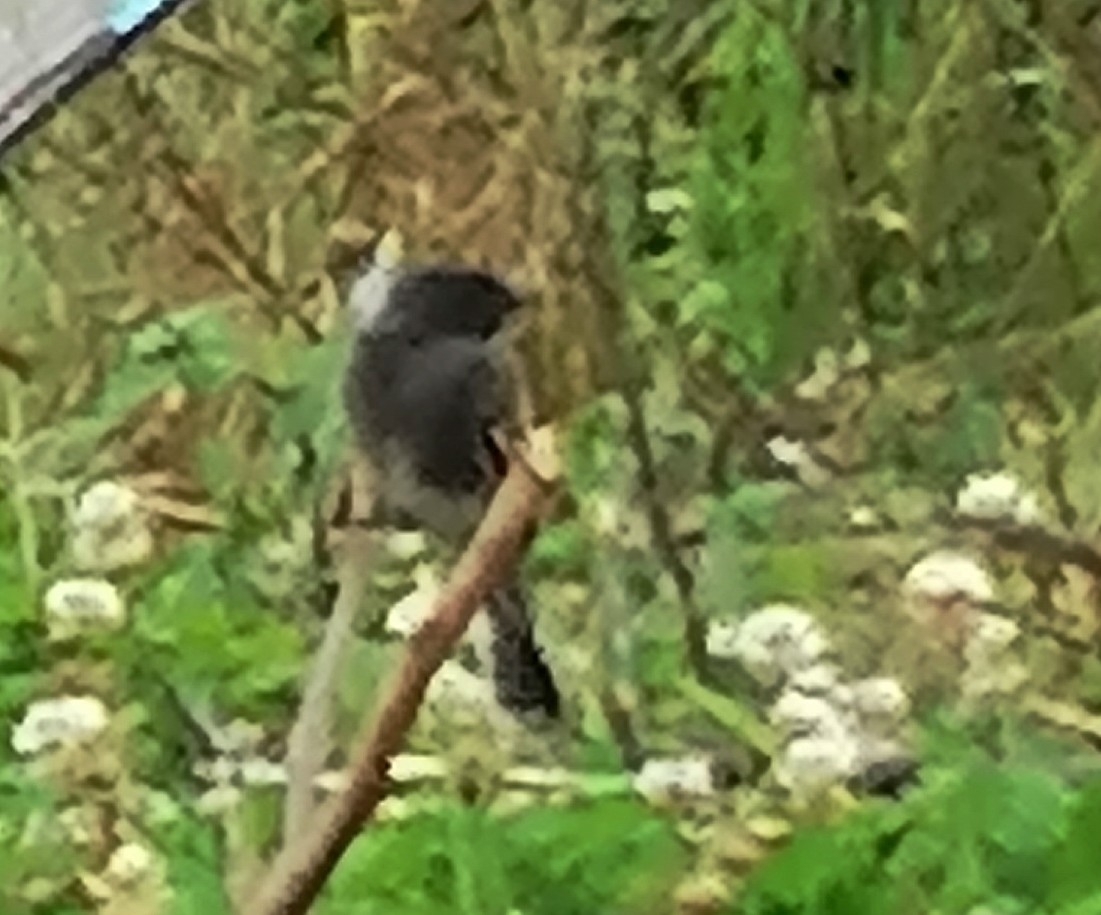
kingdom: Animalia
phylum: Chordata
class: Aves
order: Passeriformes
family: Tyrannidae
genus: Sayornis
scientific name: Sayornis nigricans
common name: Black phoebe
